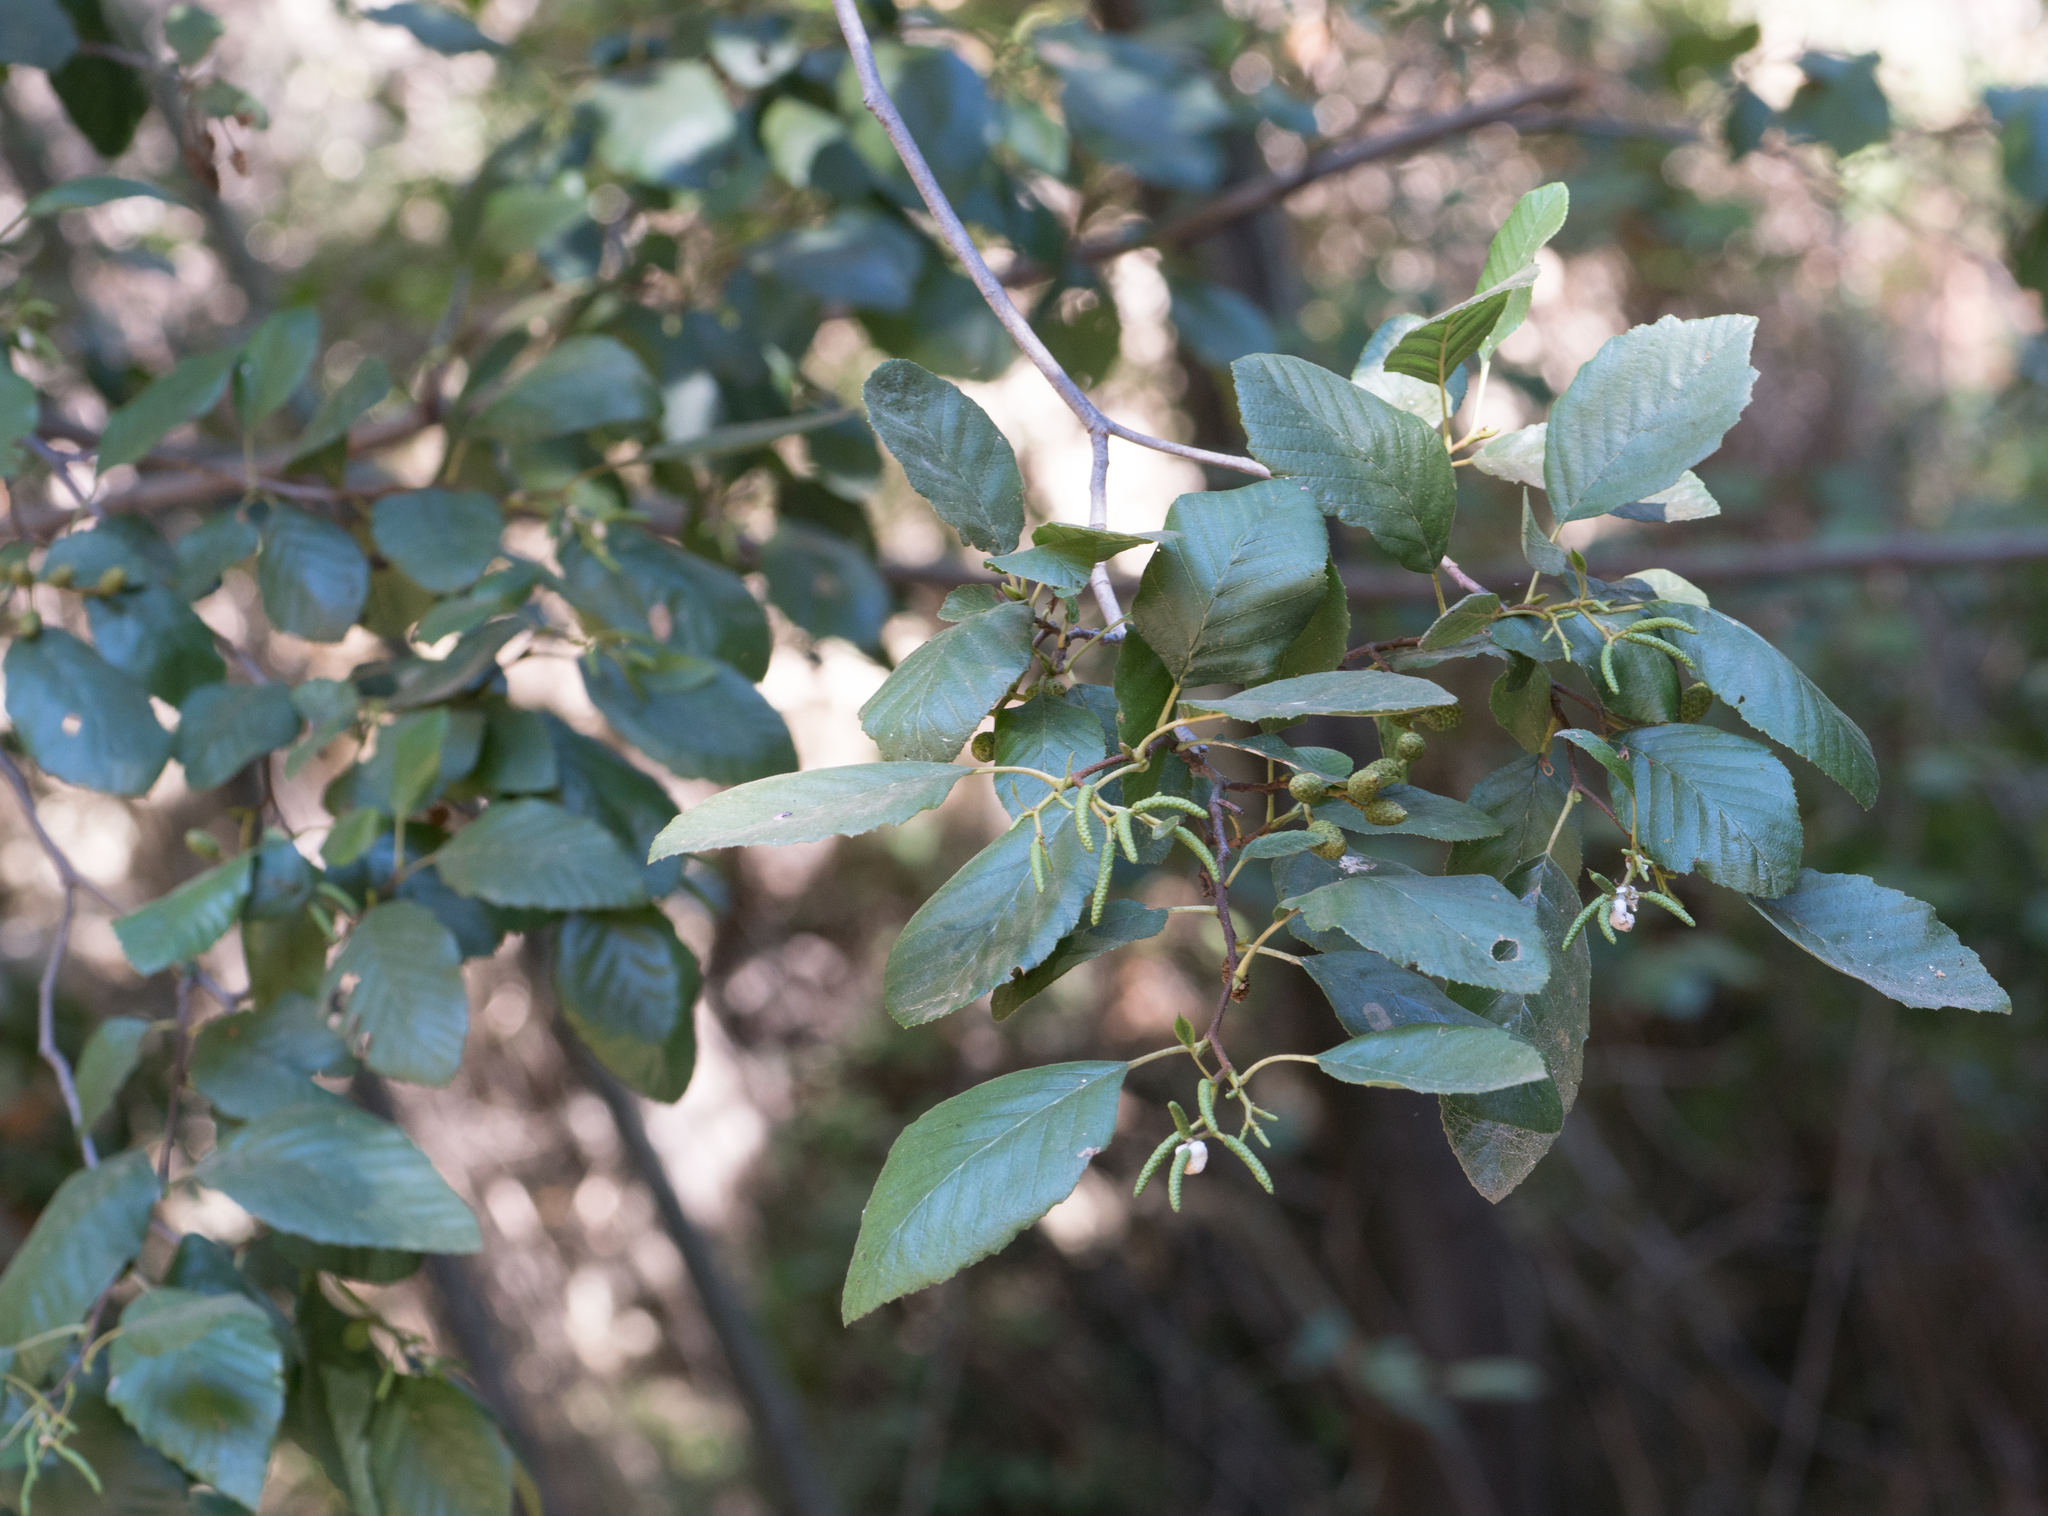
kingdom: Plantae
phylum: Tracheophyta
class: Magnoliopsida
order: Fagales
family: Betulaceae
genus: Alnus
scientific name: Alnus rhombifolia
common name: California alder
